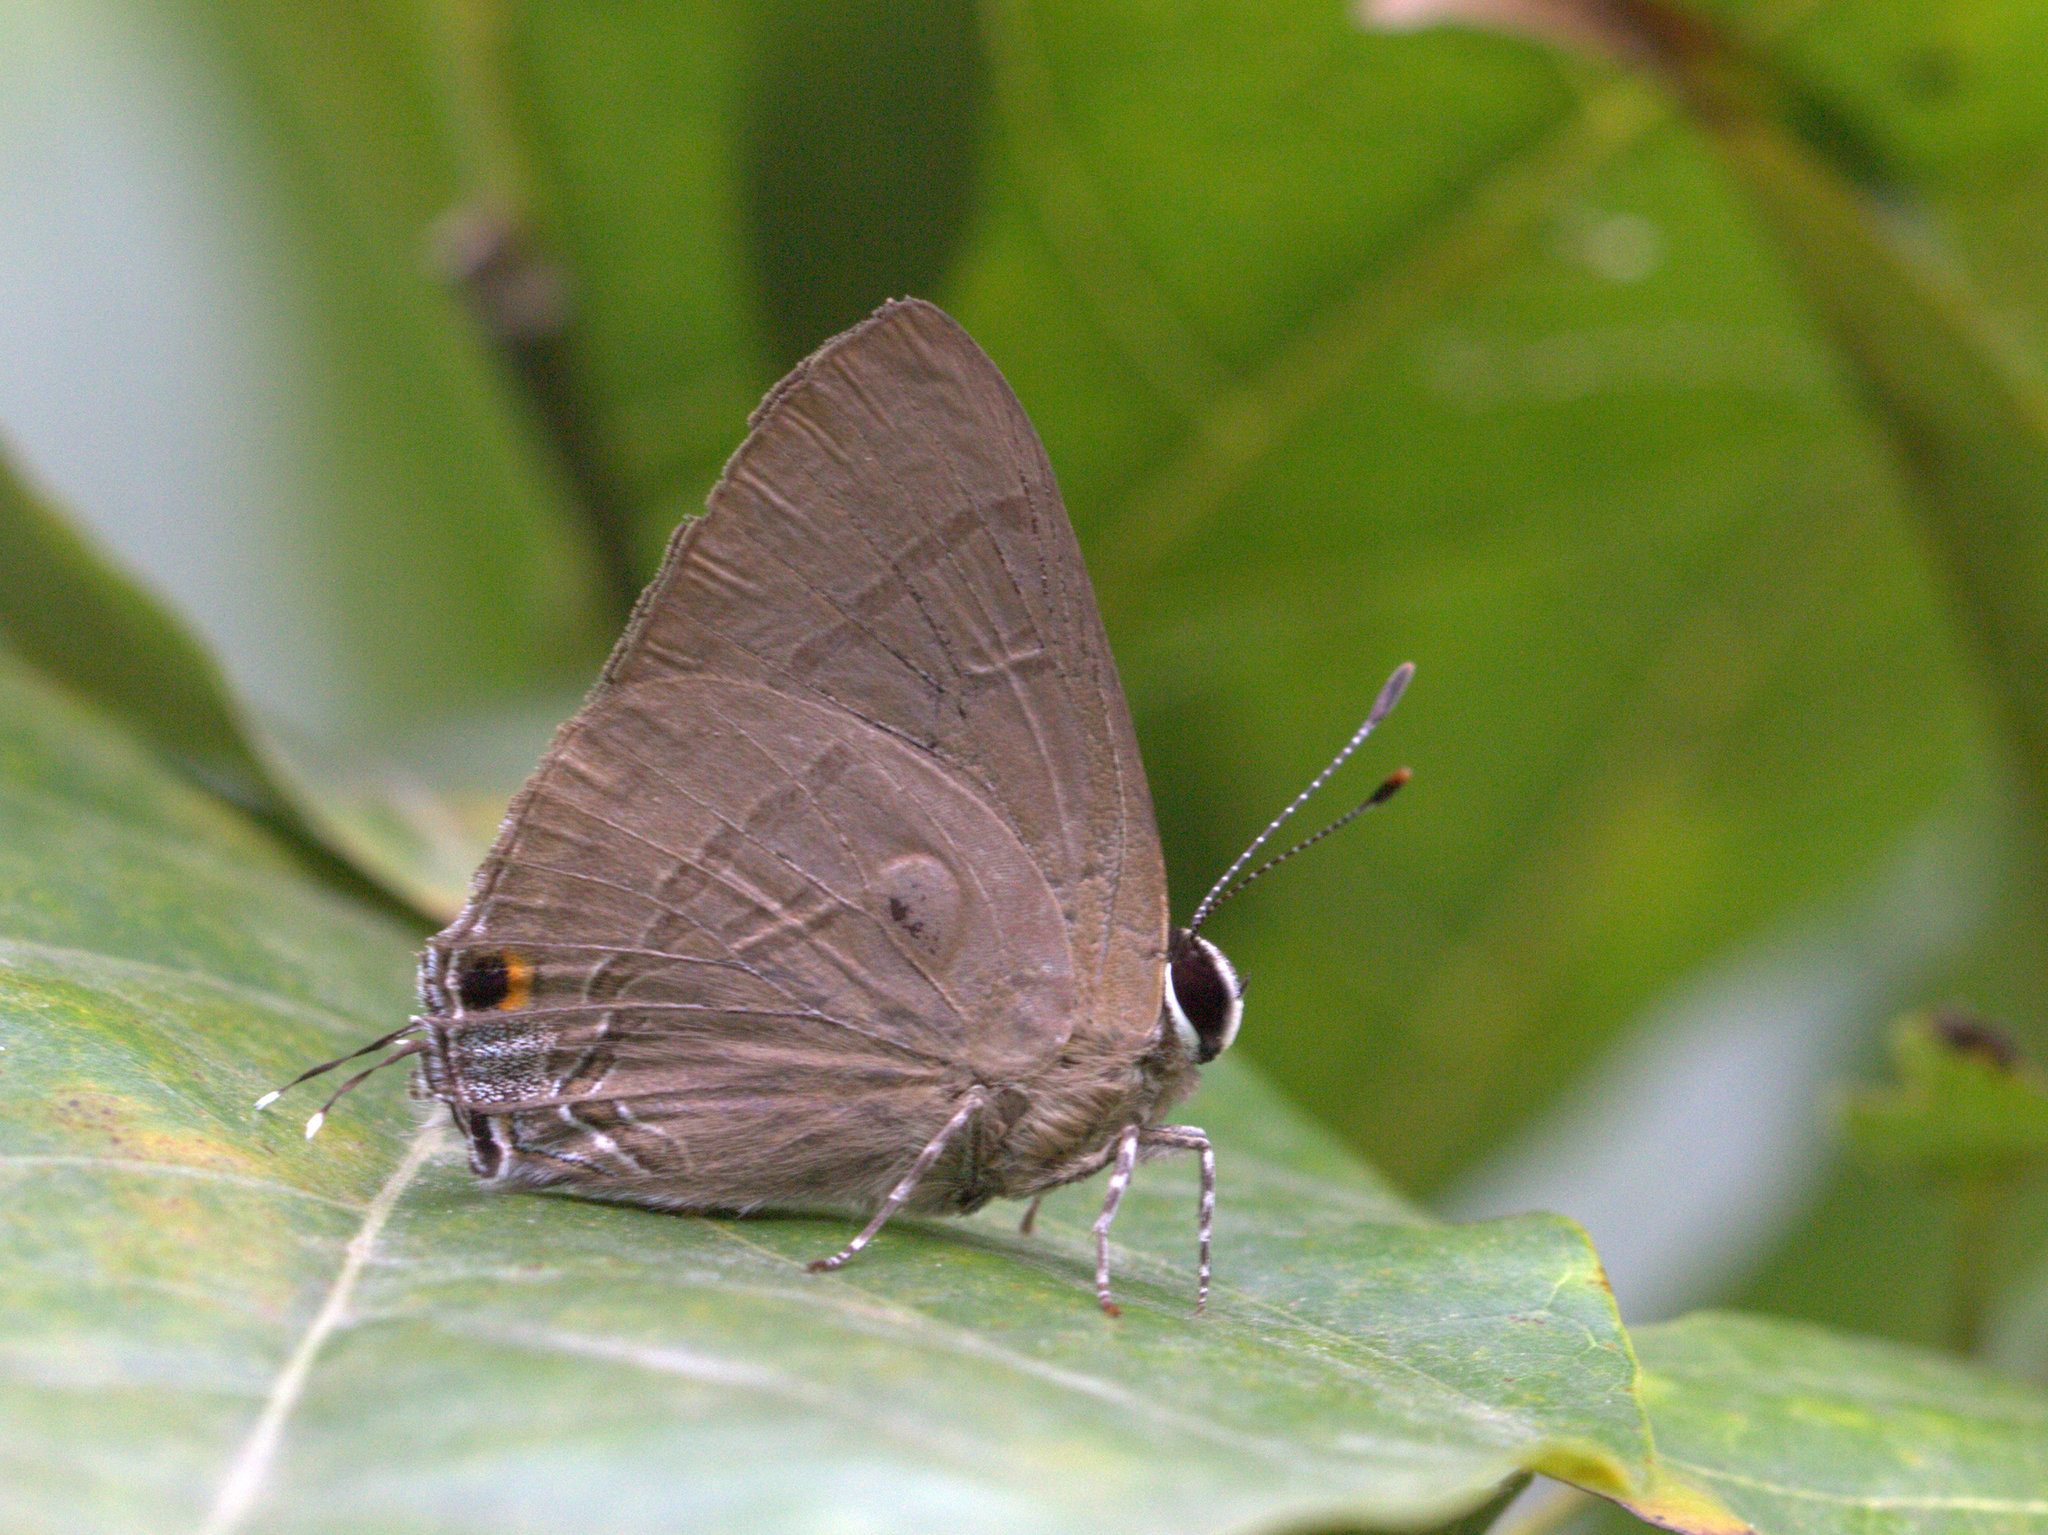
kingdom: Animalia
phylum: Arthropoda
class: Insecta
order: Lepidoptera
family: Lycaenidae
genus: Rapala
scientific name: Rapala manea
